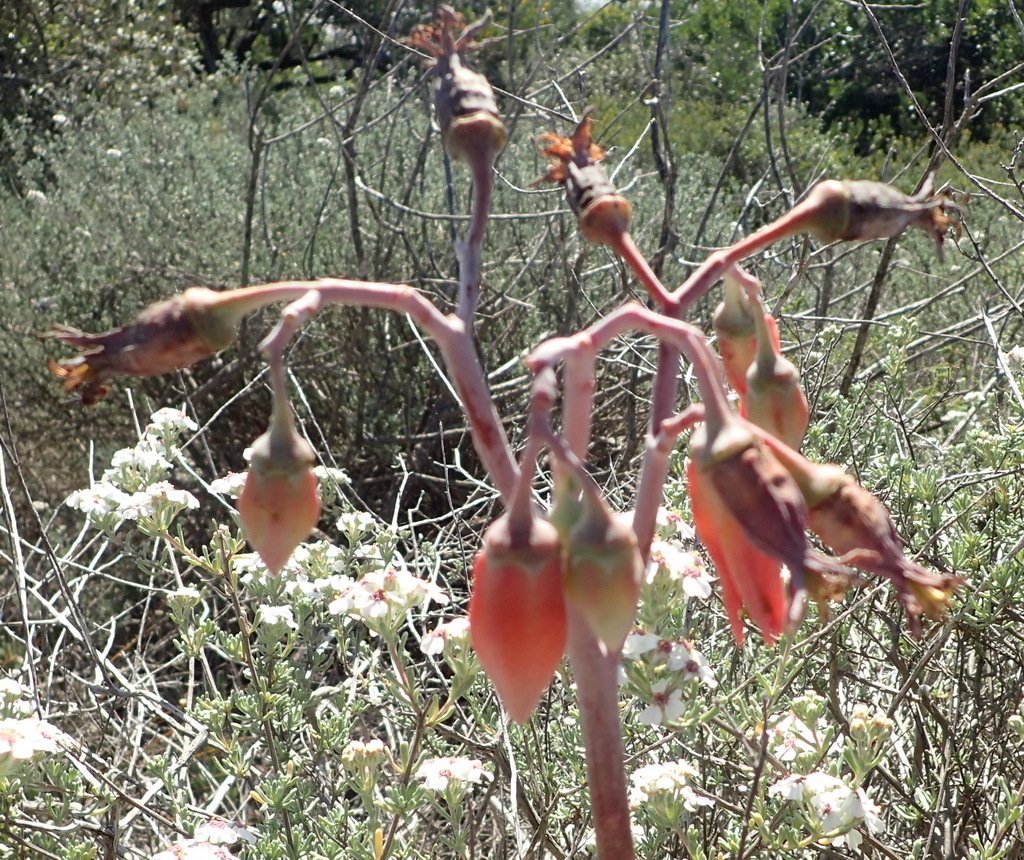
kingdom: Plantae
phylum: Tracheophyta
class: Magnoliopsida
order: Saxifragales
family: Crassulaceae
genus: Cotyledon
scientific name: Cotyledon orbiculata
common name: Pig's ear
